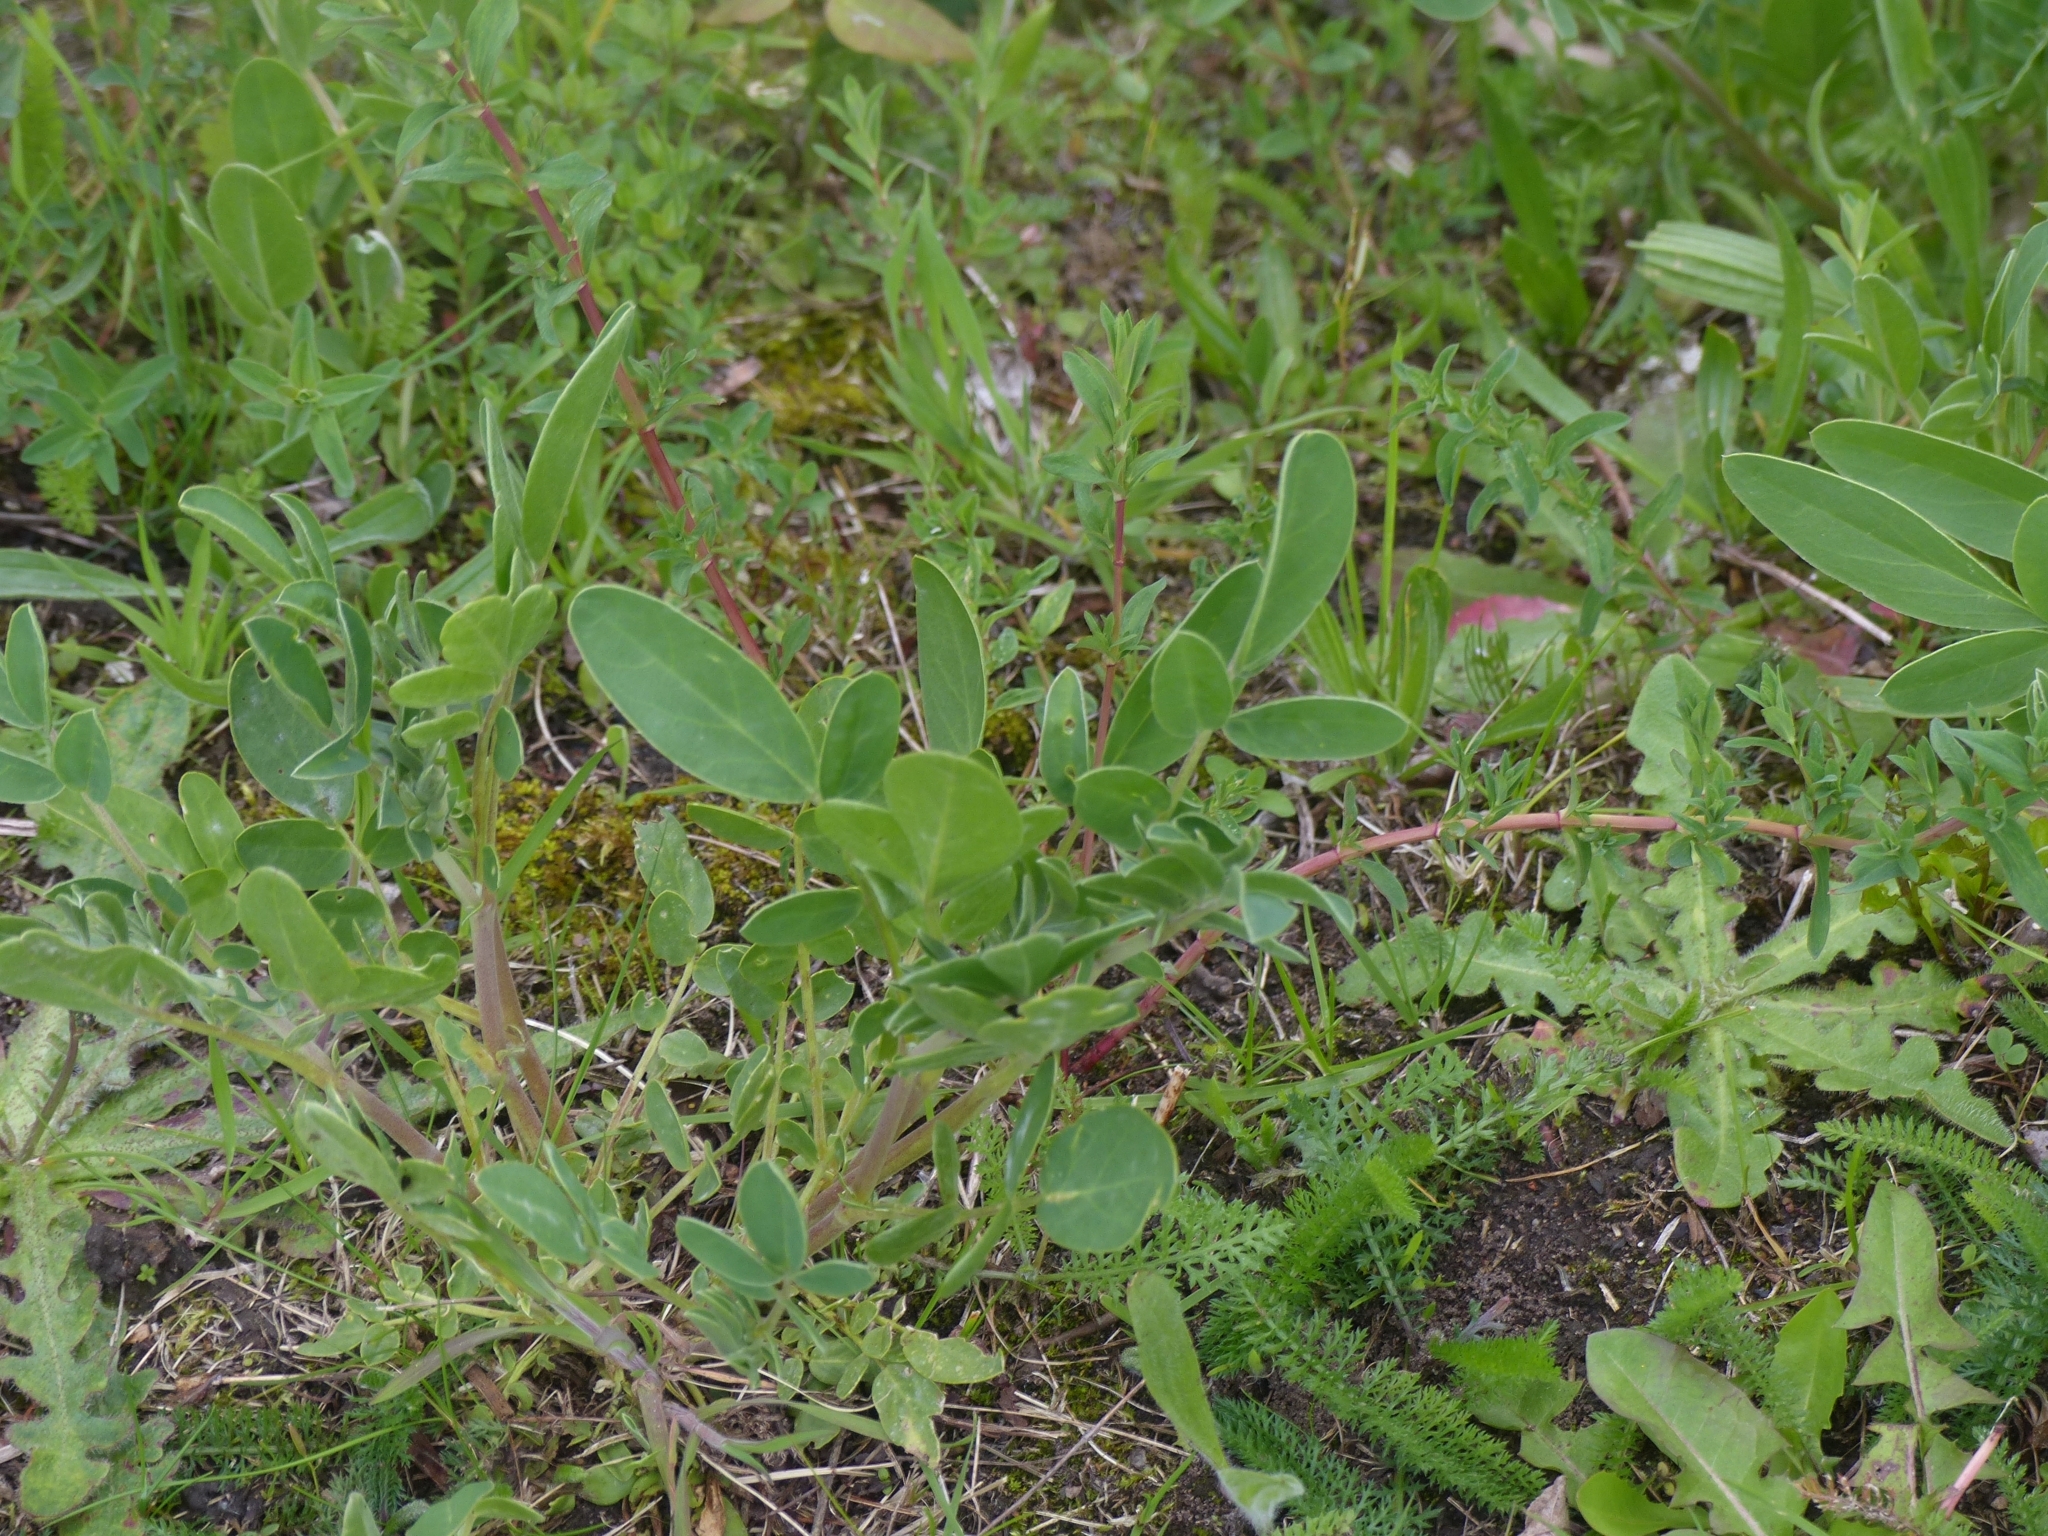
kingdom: Plantae
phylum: Tracheophyta
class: Magnoliopsida
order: Fabales
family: Fabaceae
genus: Anthyllis
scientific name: Anthyllis vulneraria
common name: Kidney vetch
